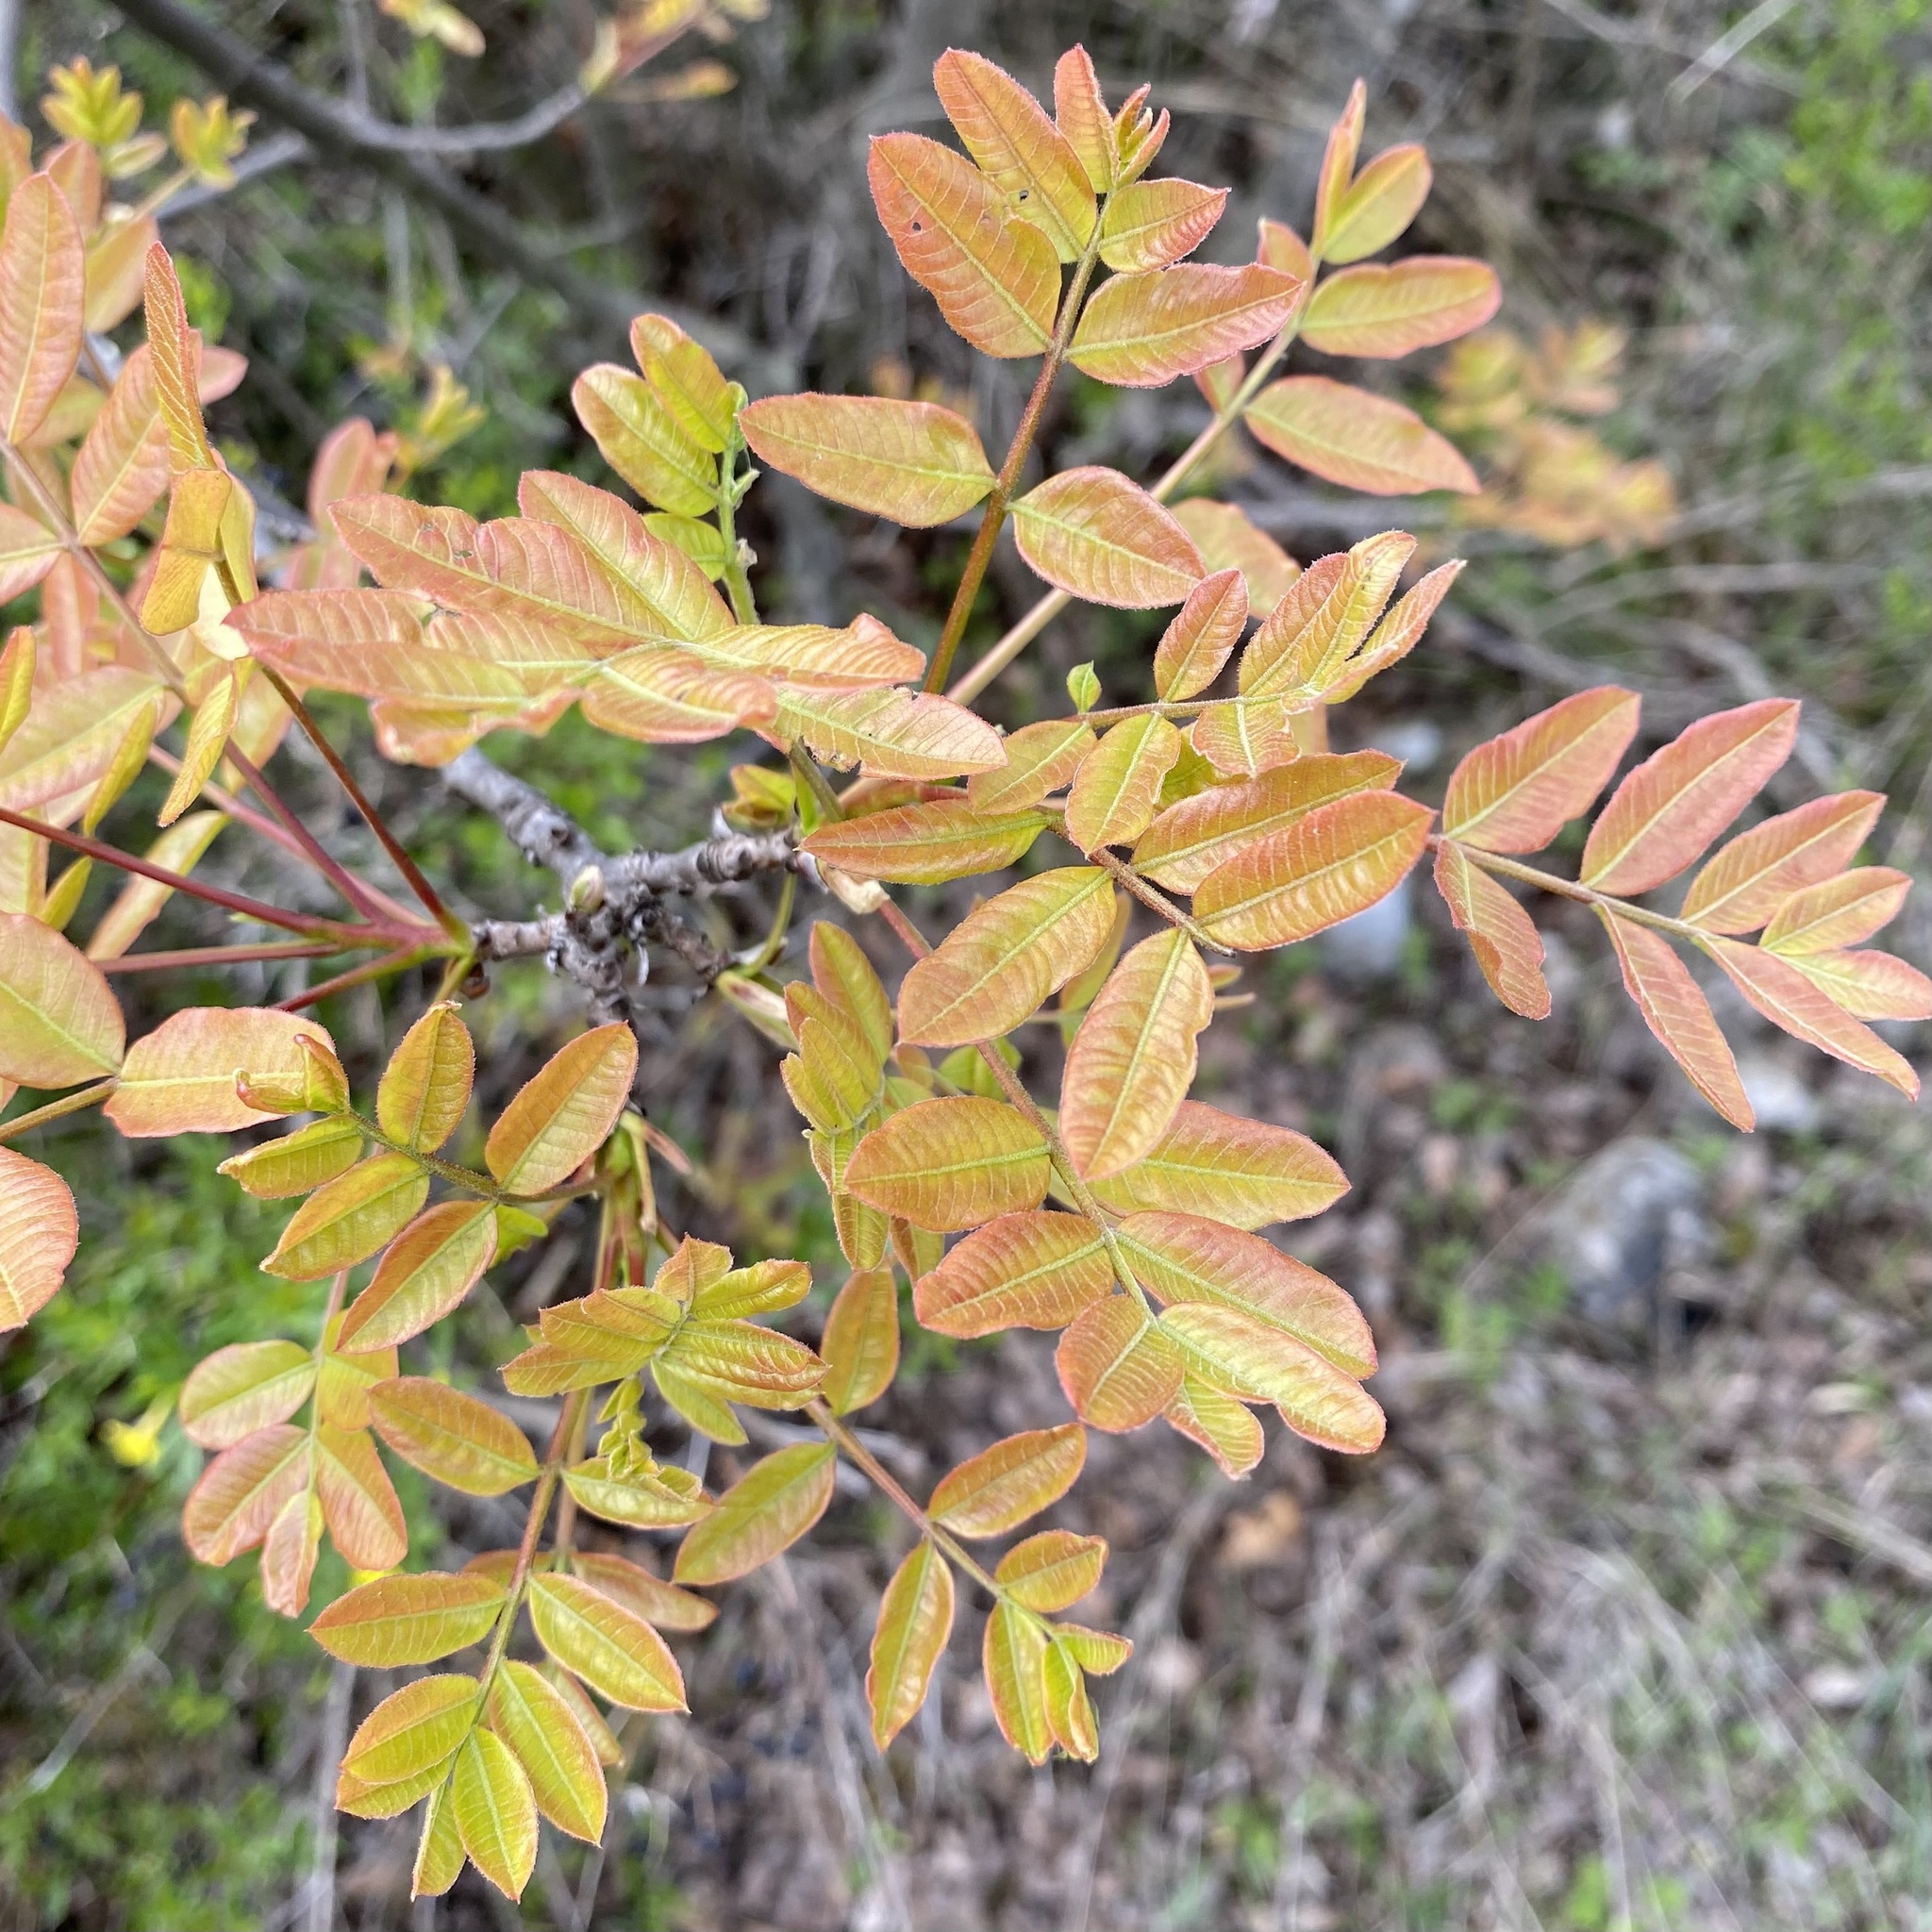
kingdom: Plantae
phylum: Tracheophyta
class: Magnoliopsida
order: Sapindales
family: Anacardiaceae
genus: Pistacia
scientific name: Pistacia terebinthus
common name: Terebinth
